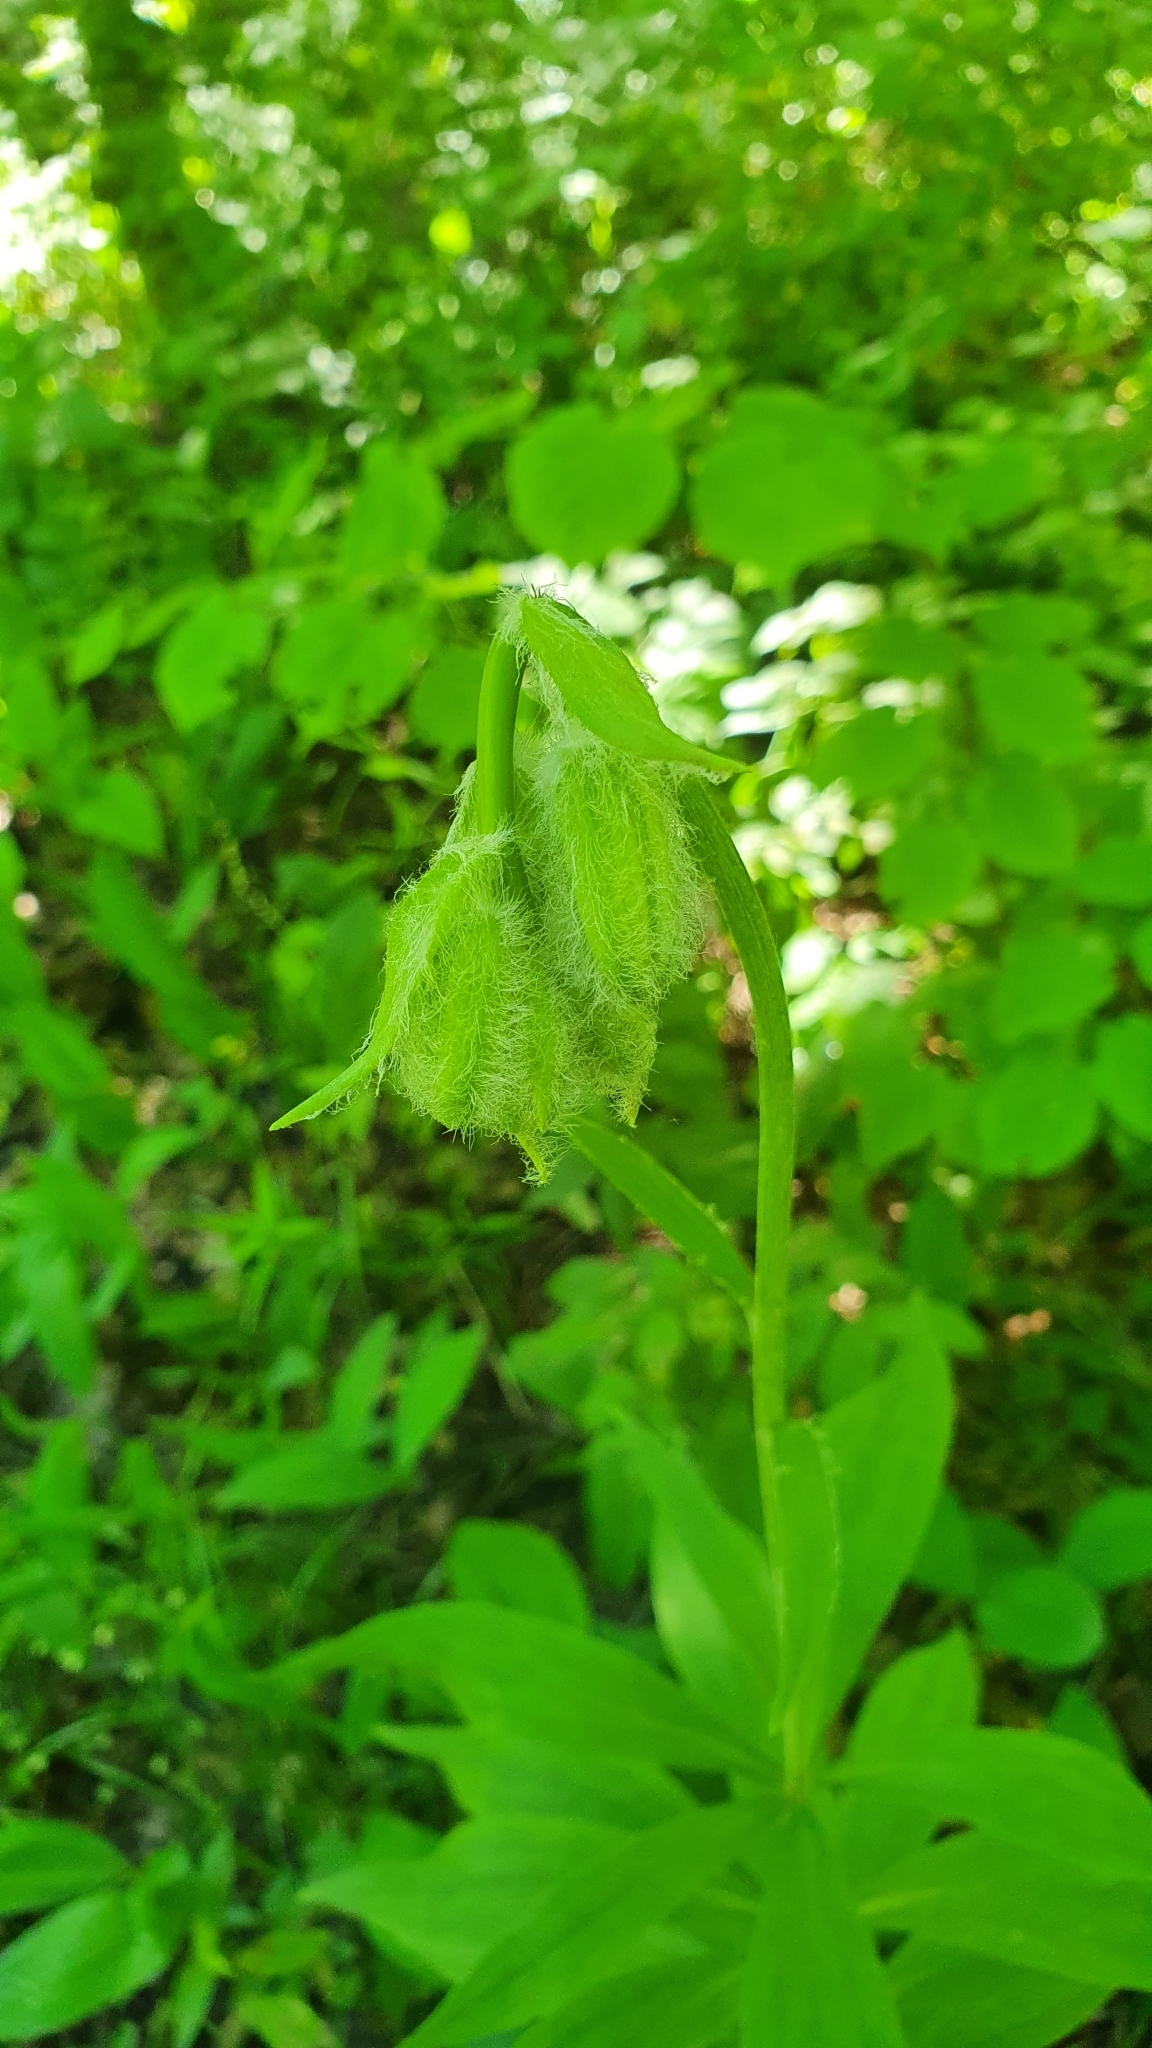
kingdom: Plantae
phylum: Tracheophyta
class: Liliopsida
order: Liliales
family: Liliaceae
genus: Lilium
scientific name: Lilium martagon
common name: Martagon lily
